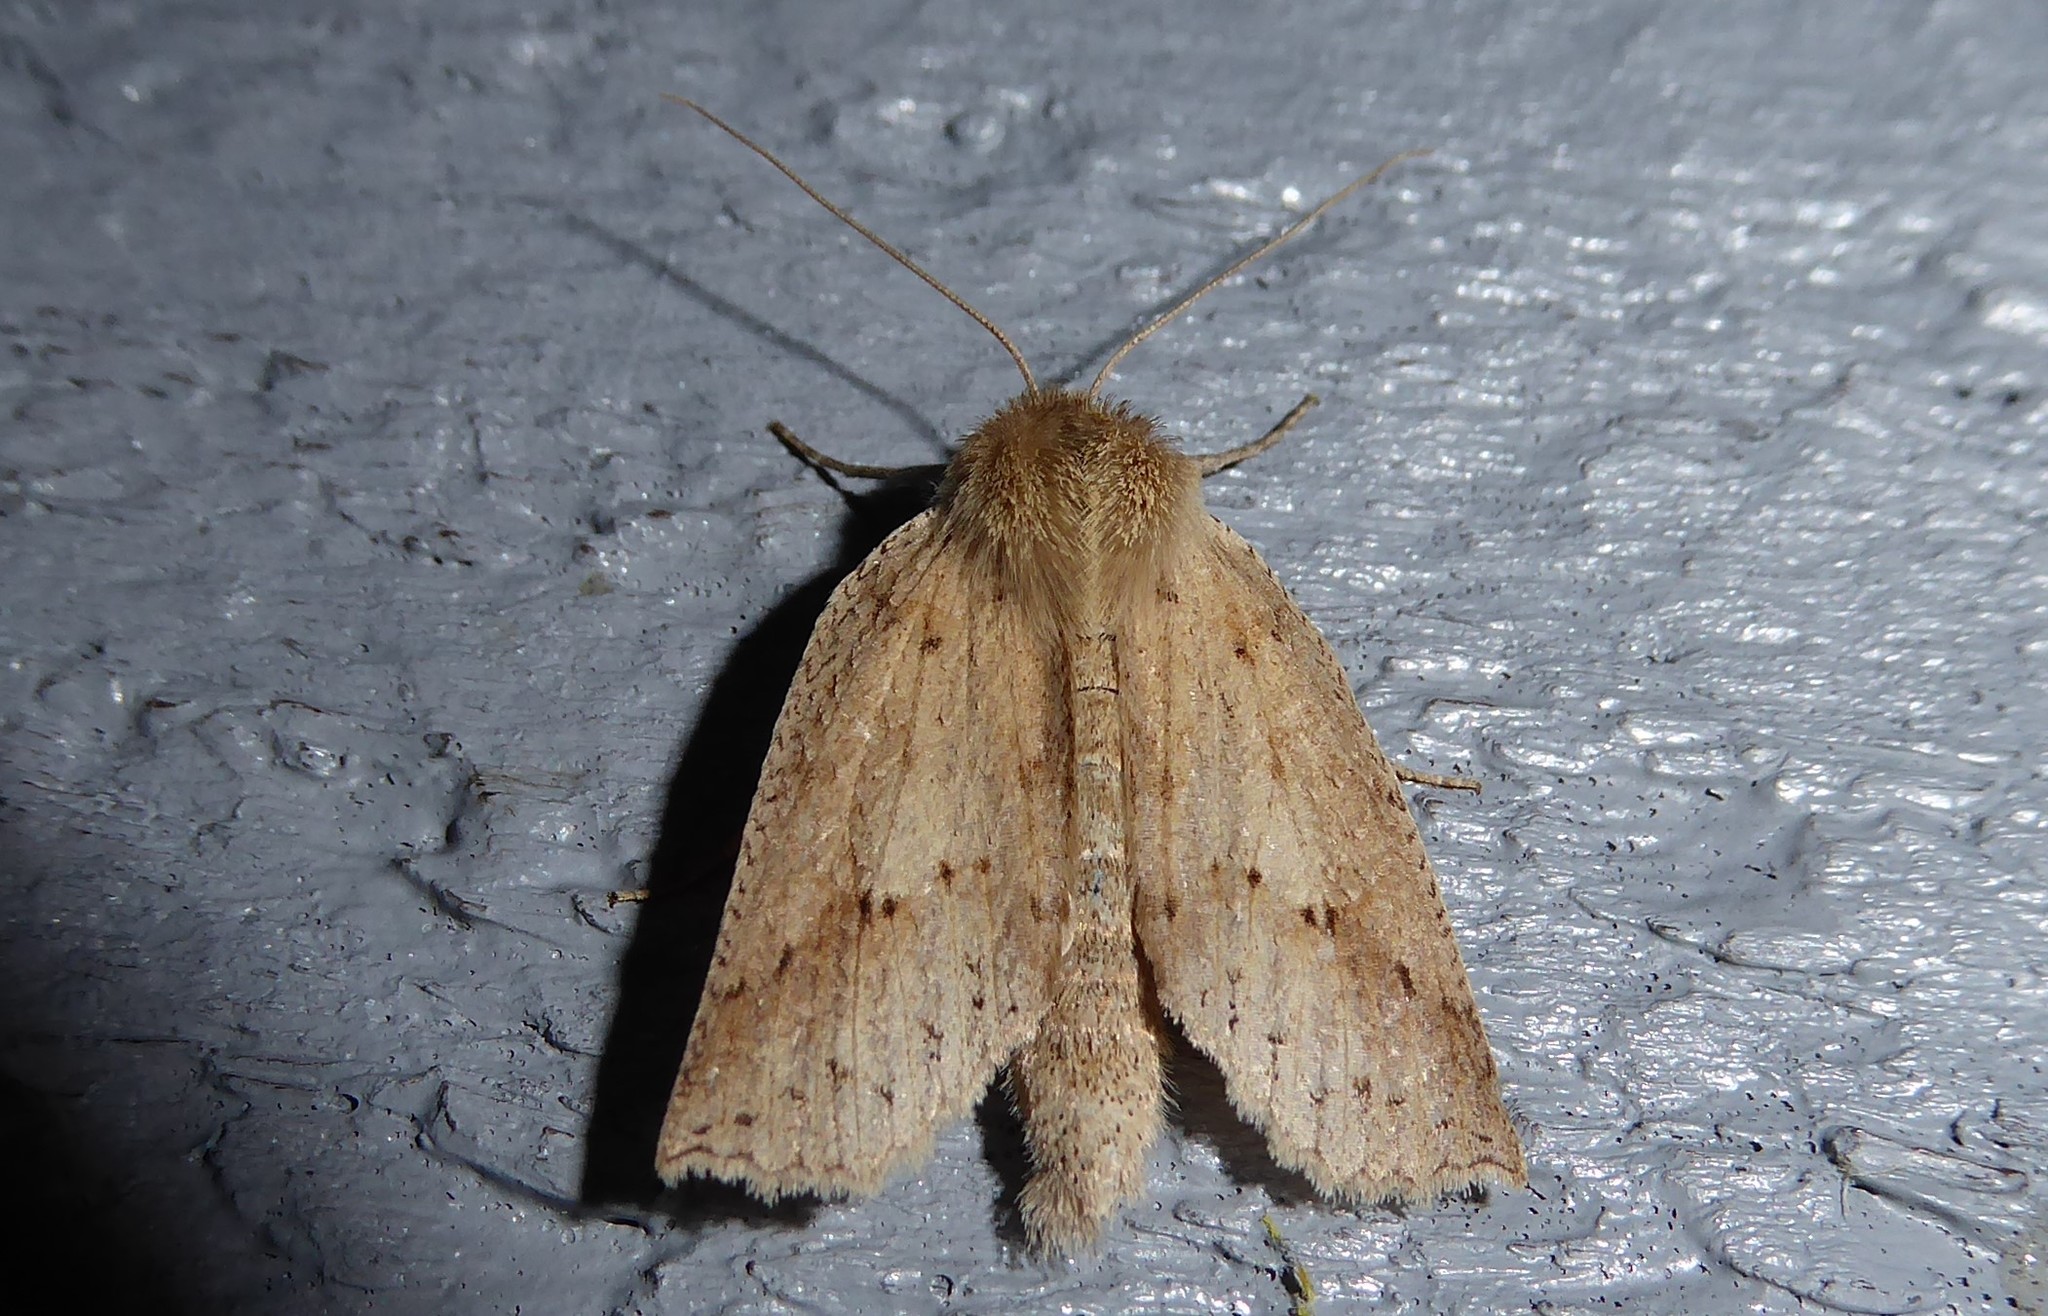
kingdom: Animalia
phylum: Arthropoda
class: Insecta
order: Lepidoptera
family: Geometridae
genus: Declana
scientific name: Declana leptomera
